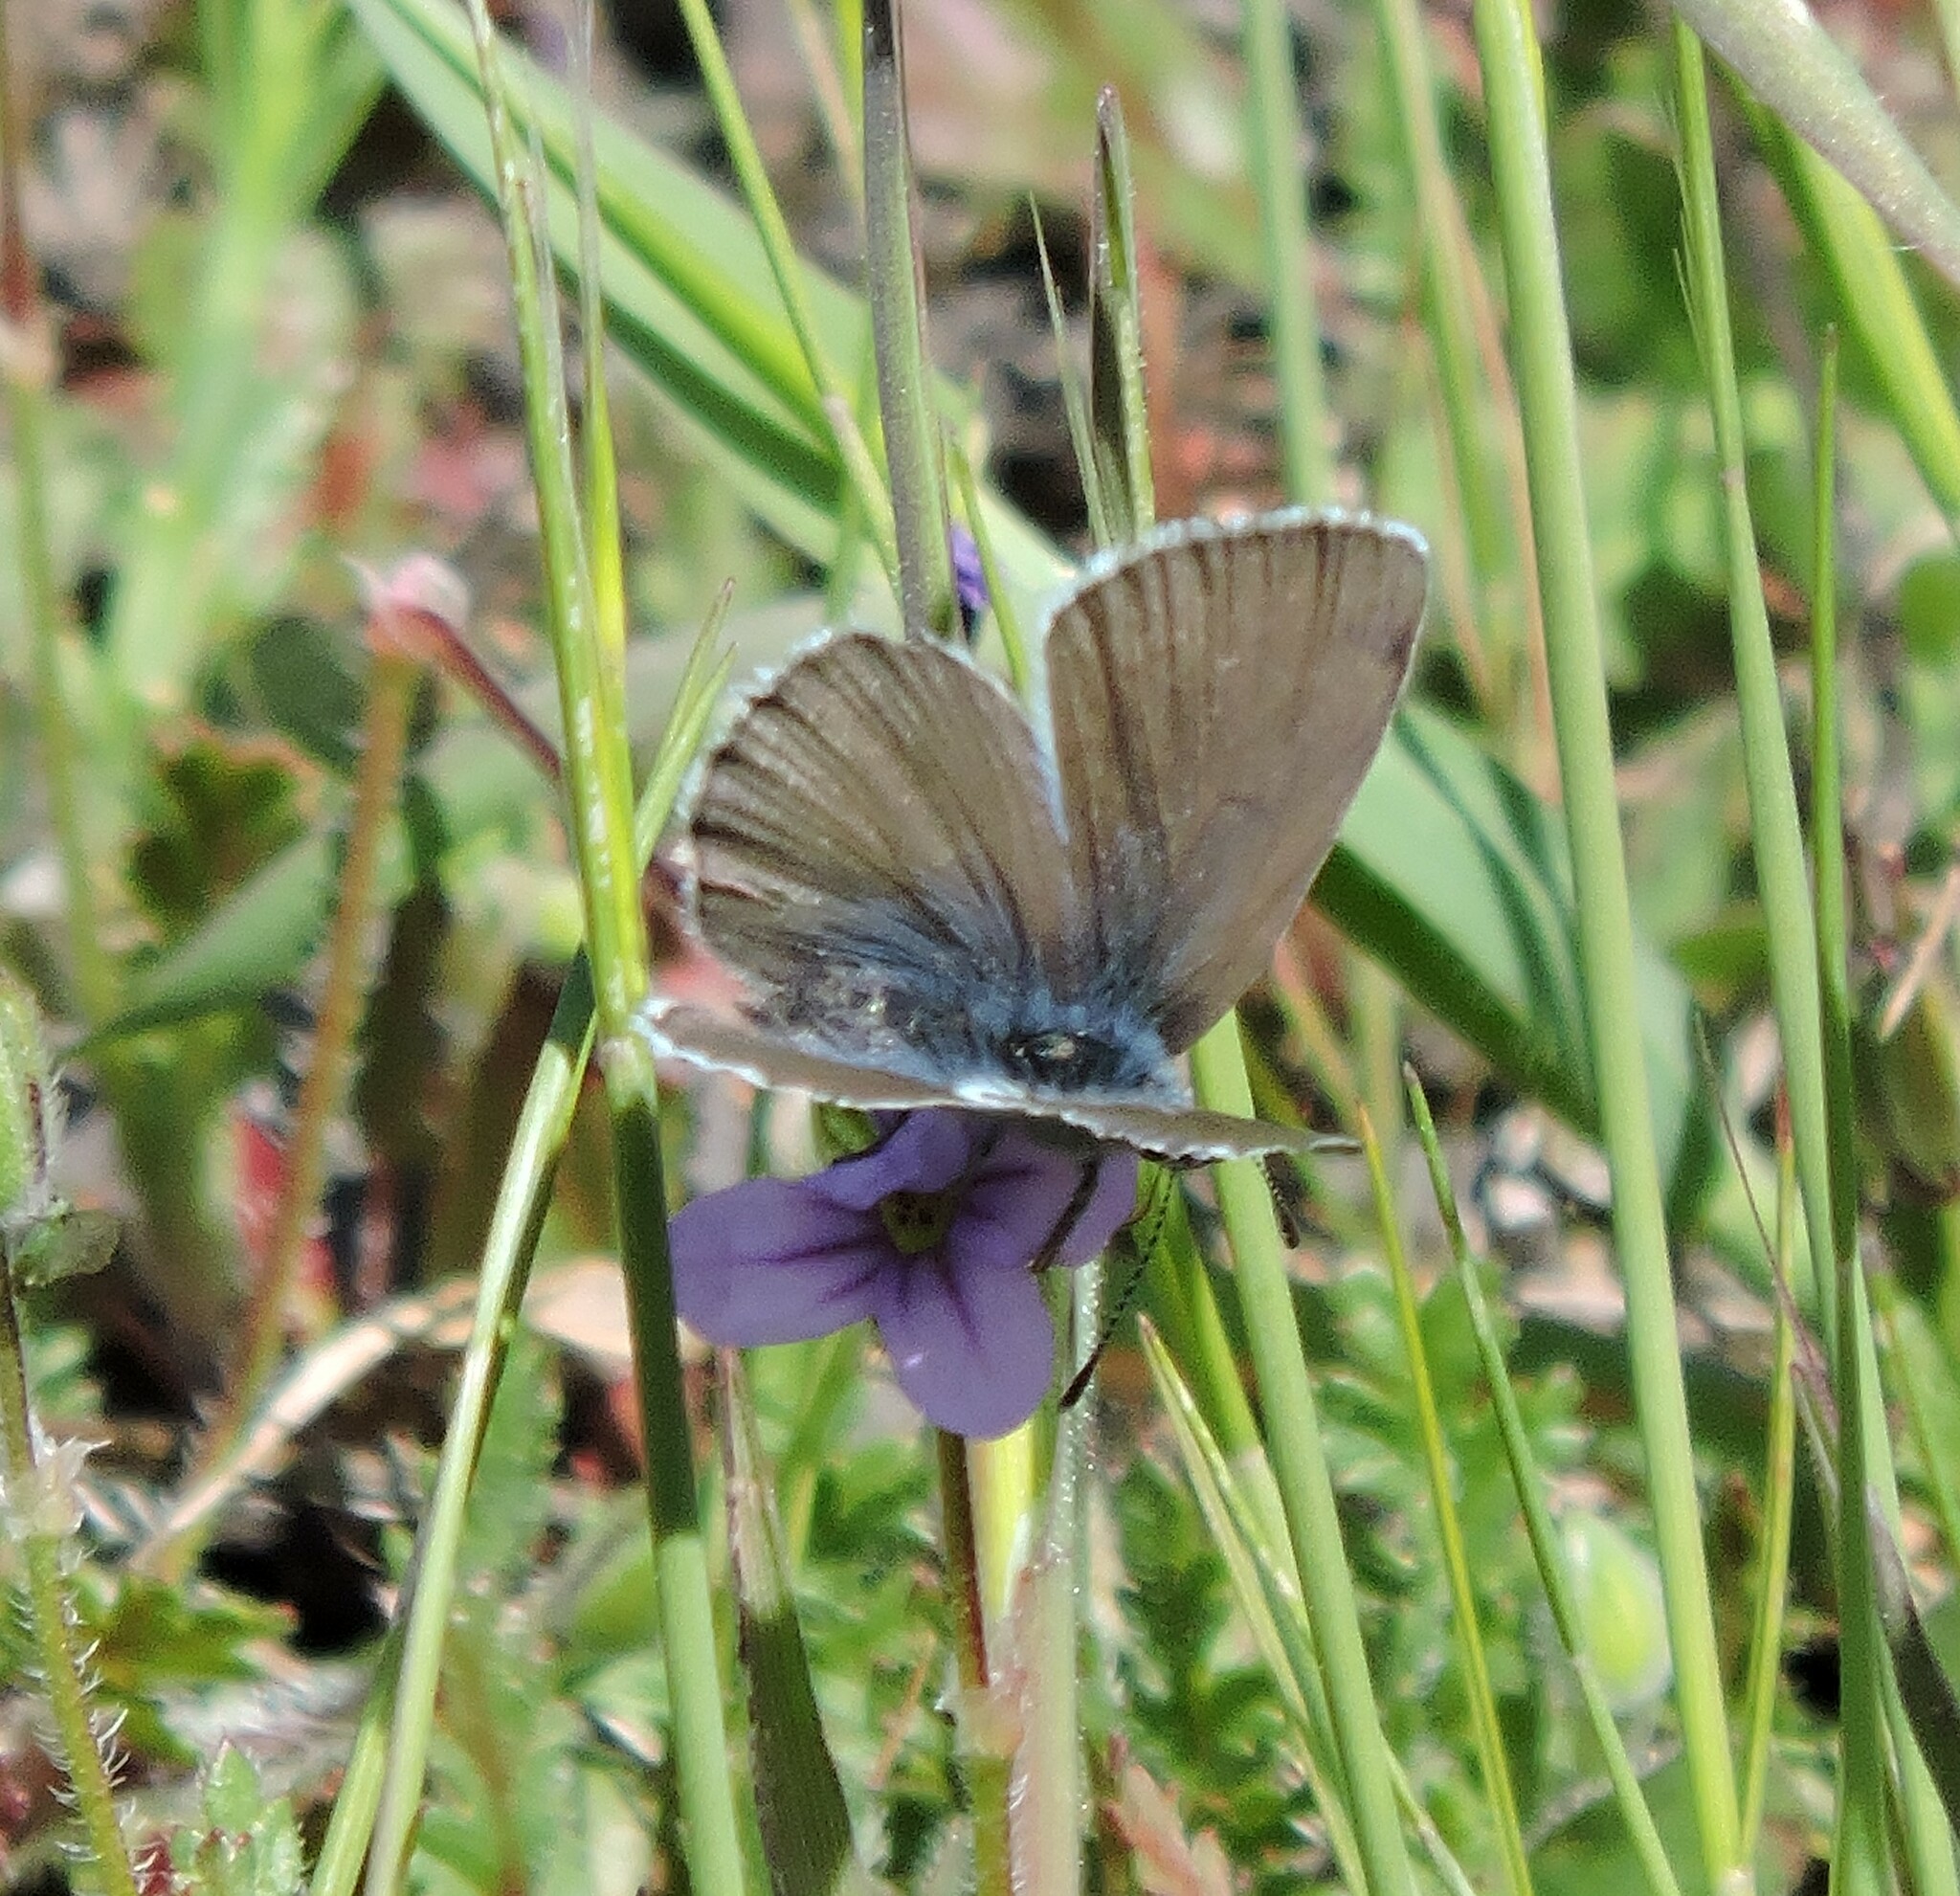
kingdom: Animalia
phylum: Arthropoda
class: Insecta
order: Lepidoptera
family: Lycaenidae
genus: Glaucopsyche
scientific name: Glaucopsyche lygdamus
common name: Silvery blue
